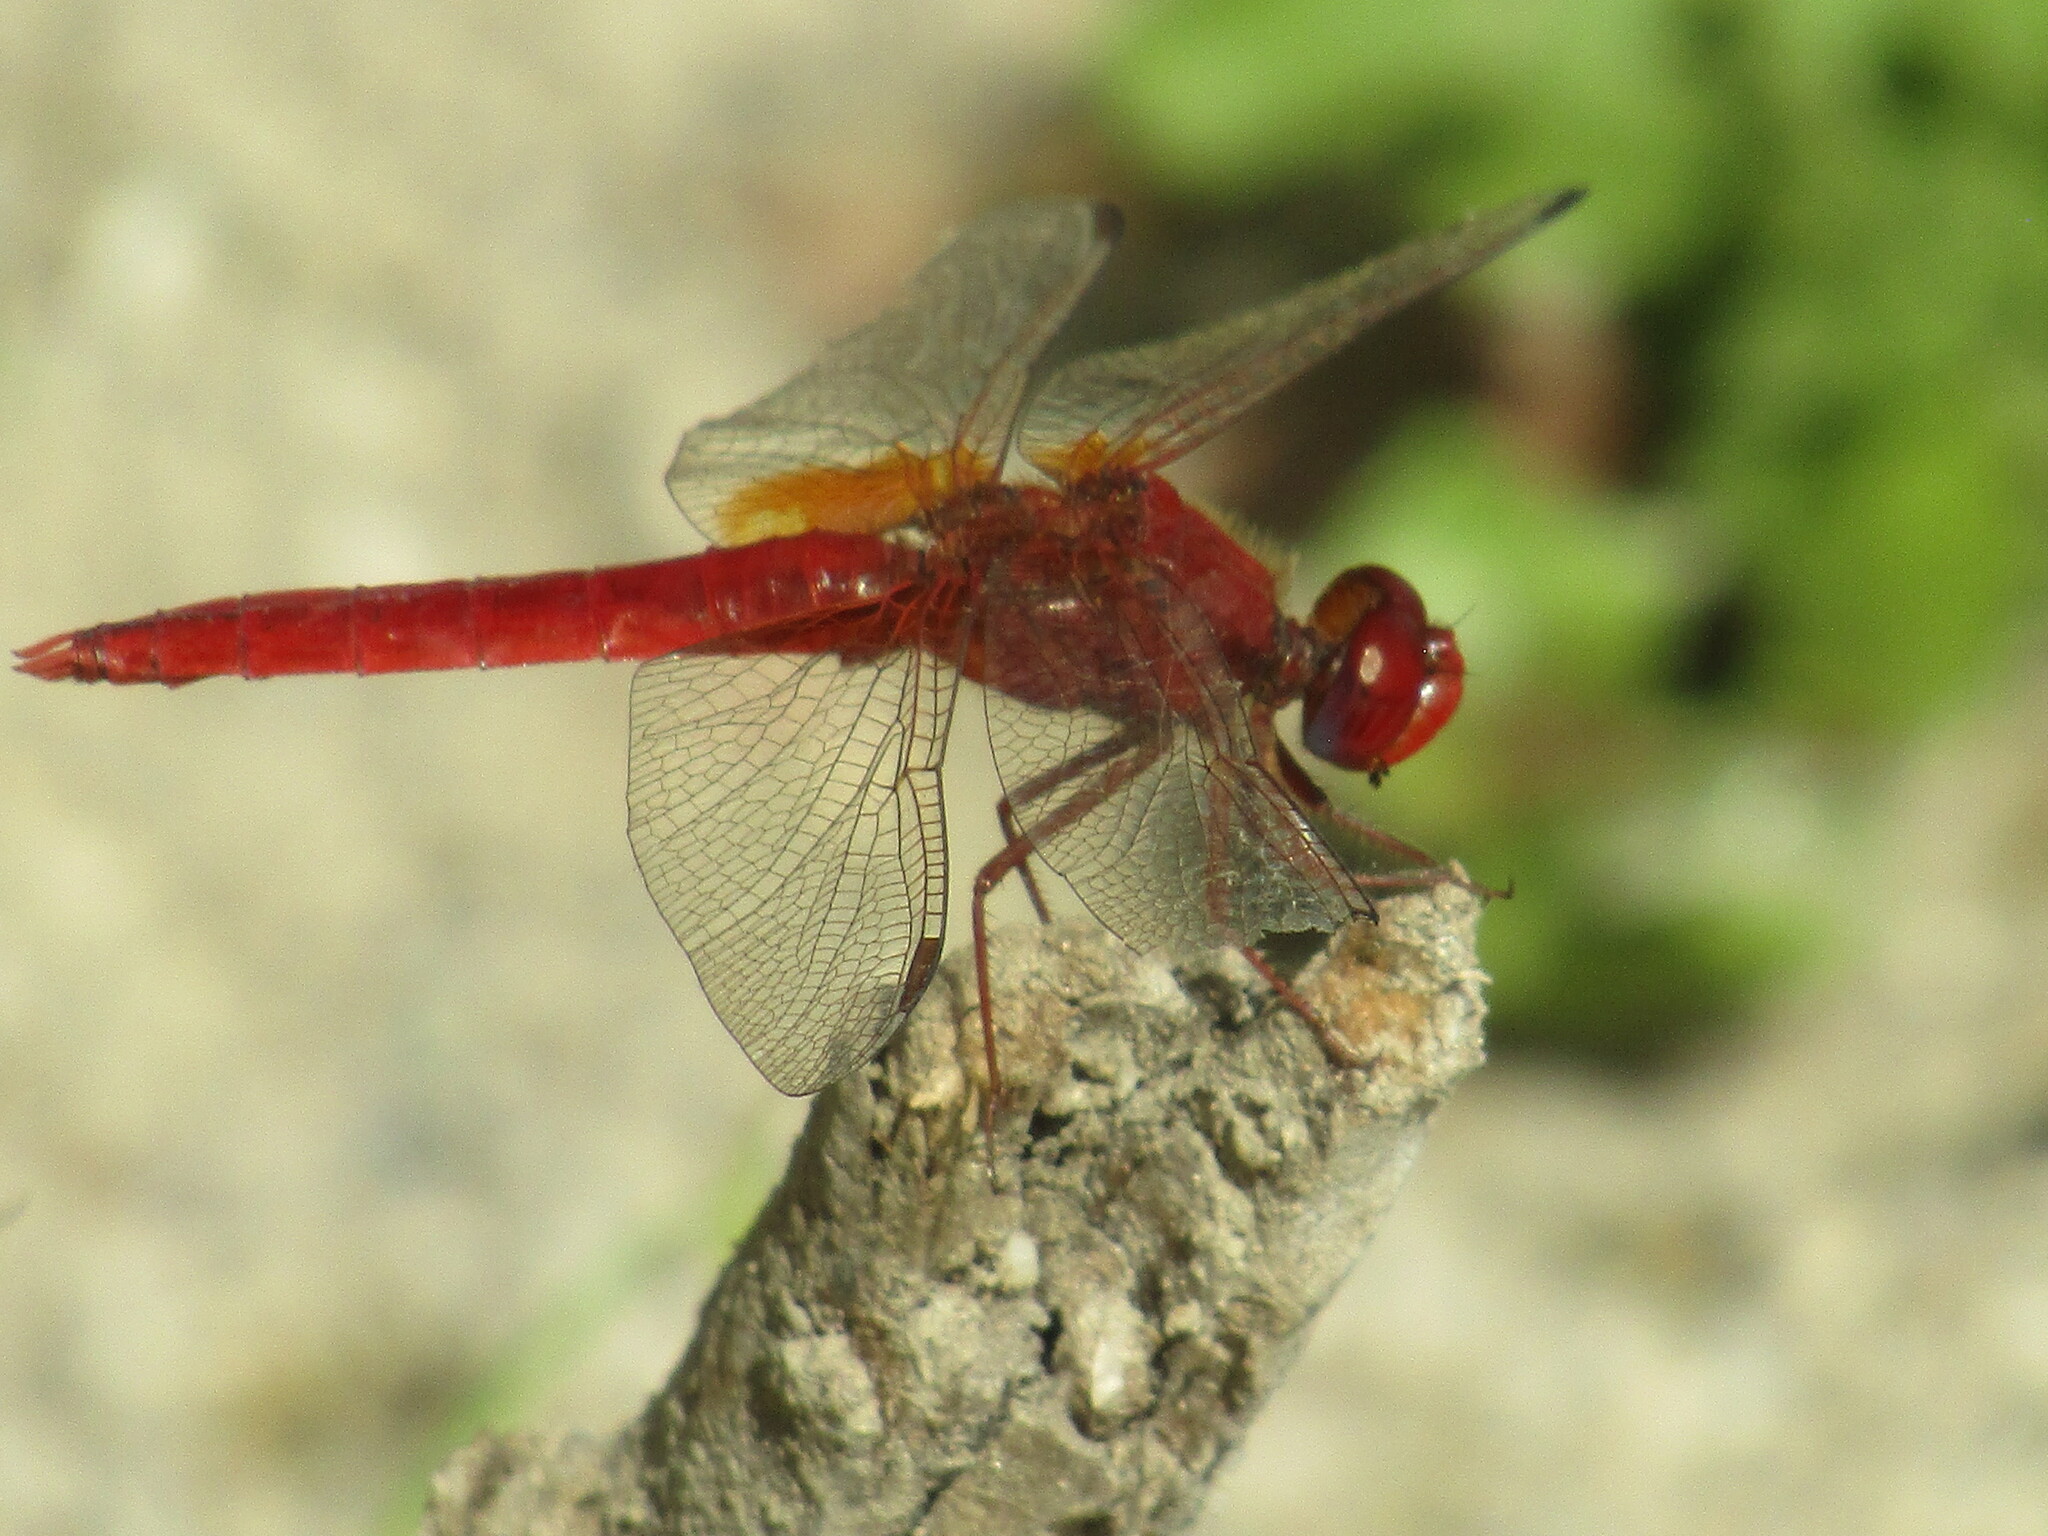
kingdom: Animalia
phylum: Arthropoda
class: Insecta
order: Odonata
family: Libellulidae
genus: Crocothemis
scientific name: Crocothemis erythraea
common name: Scarlet dragonfly
